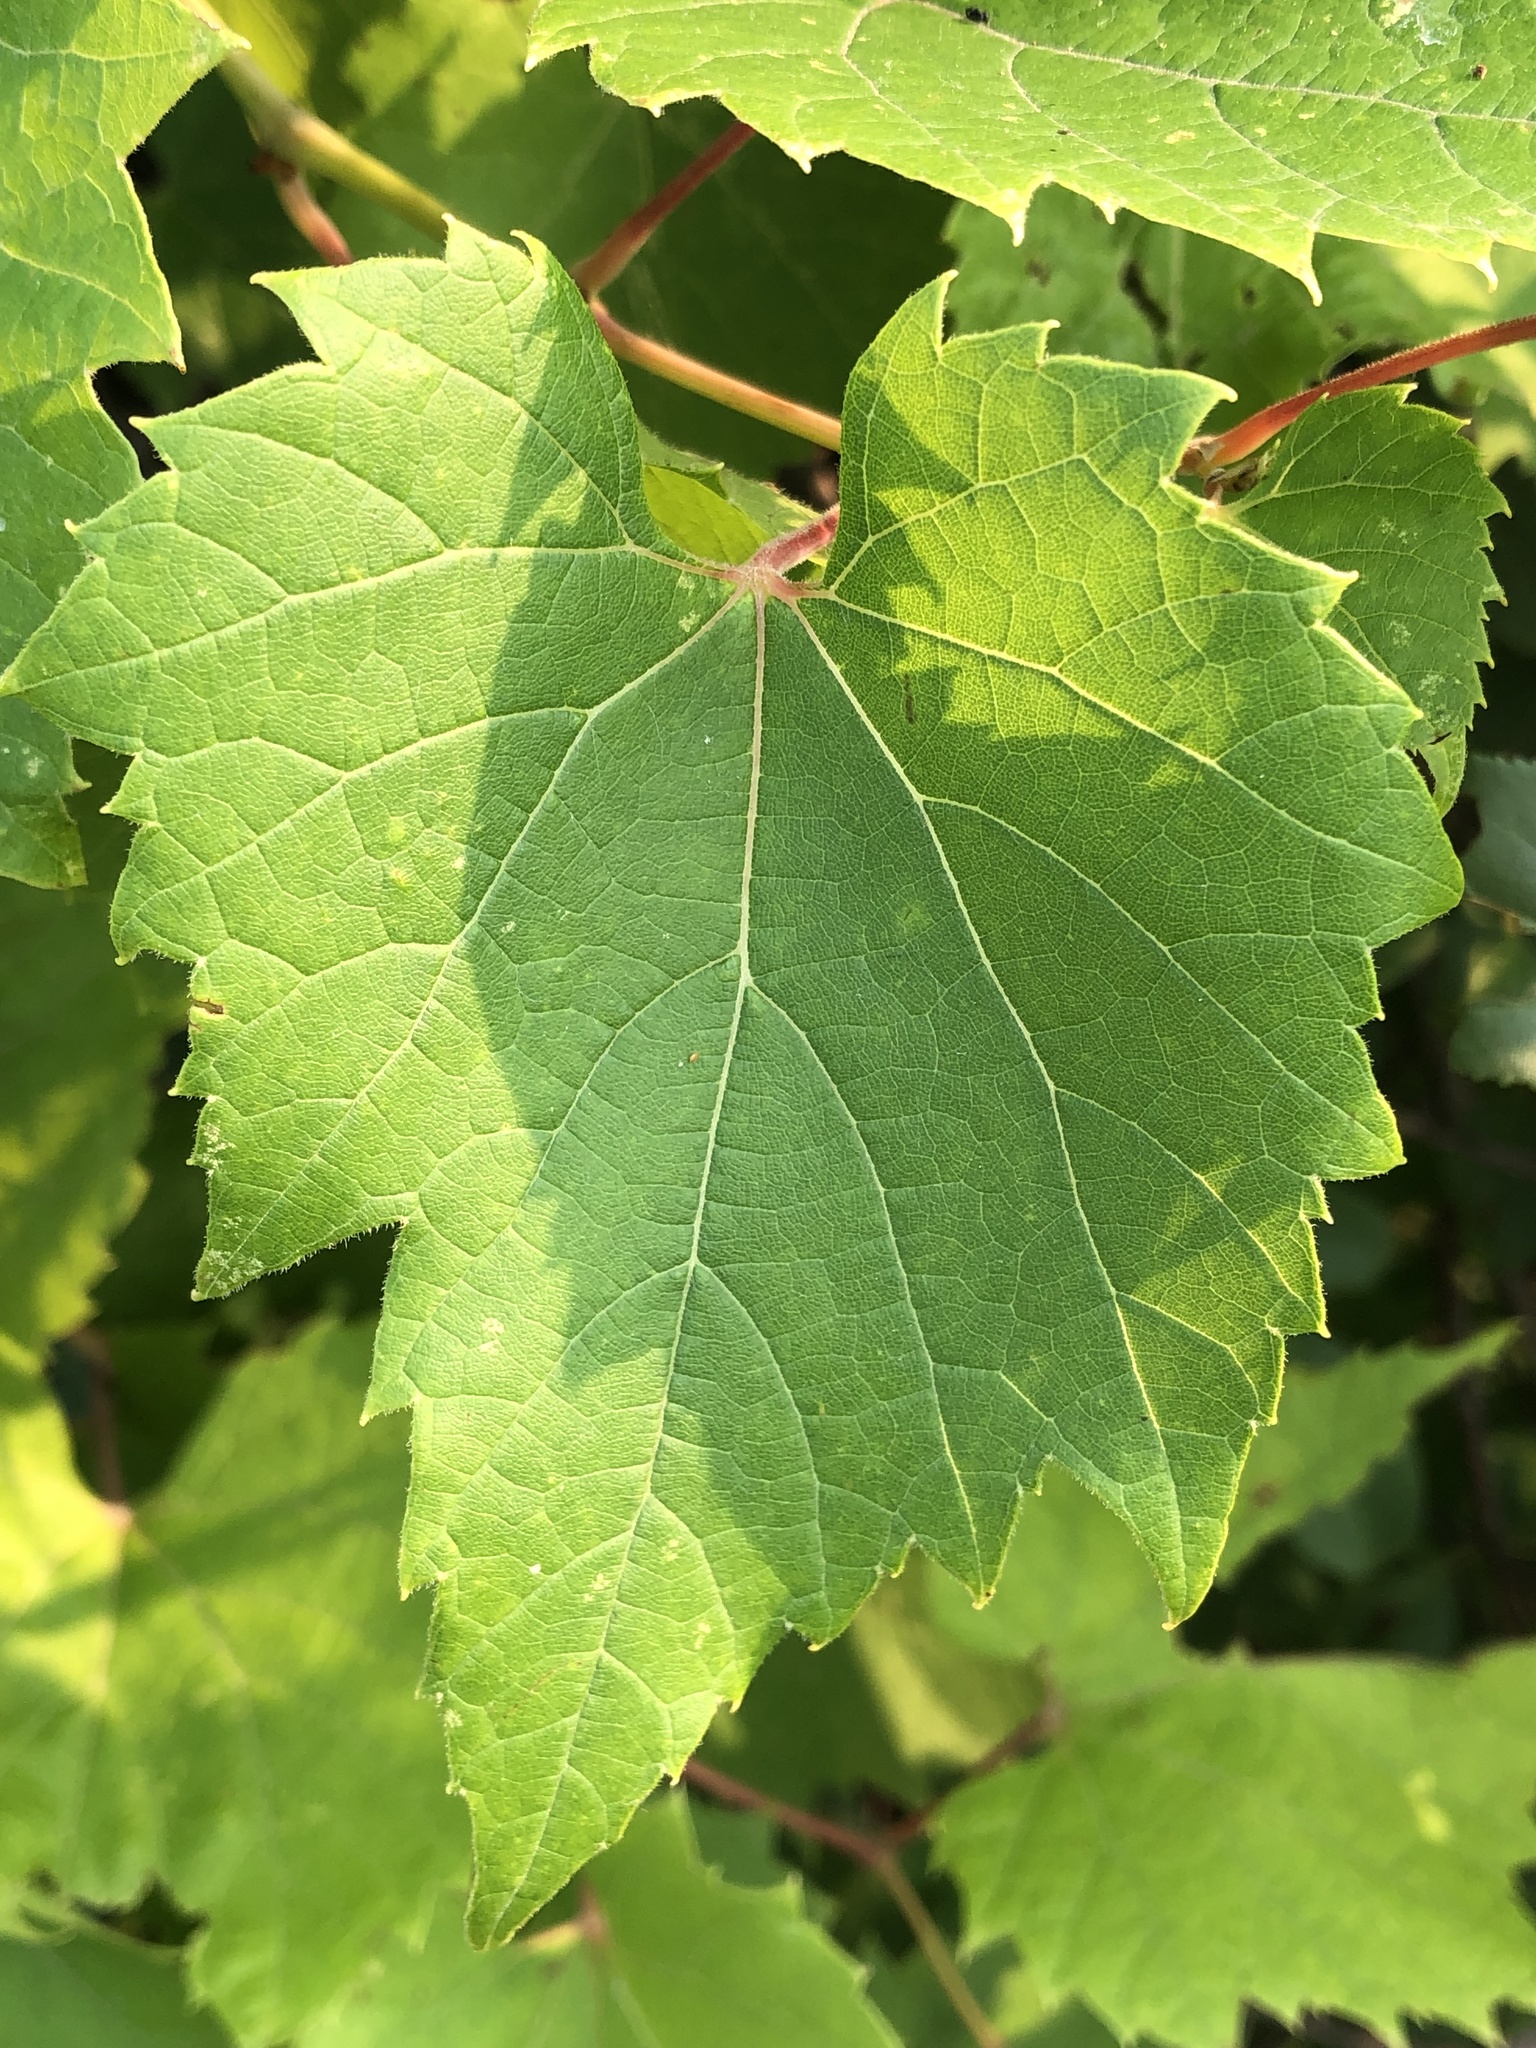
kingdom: Plantae
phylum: Tracheophyta
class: Magnoliopsida
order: Vitales
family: Vitaceae
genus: Vitis
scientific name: Vitis riparia
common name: Frost grape
